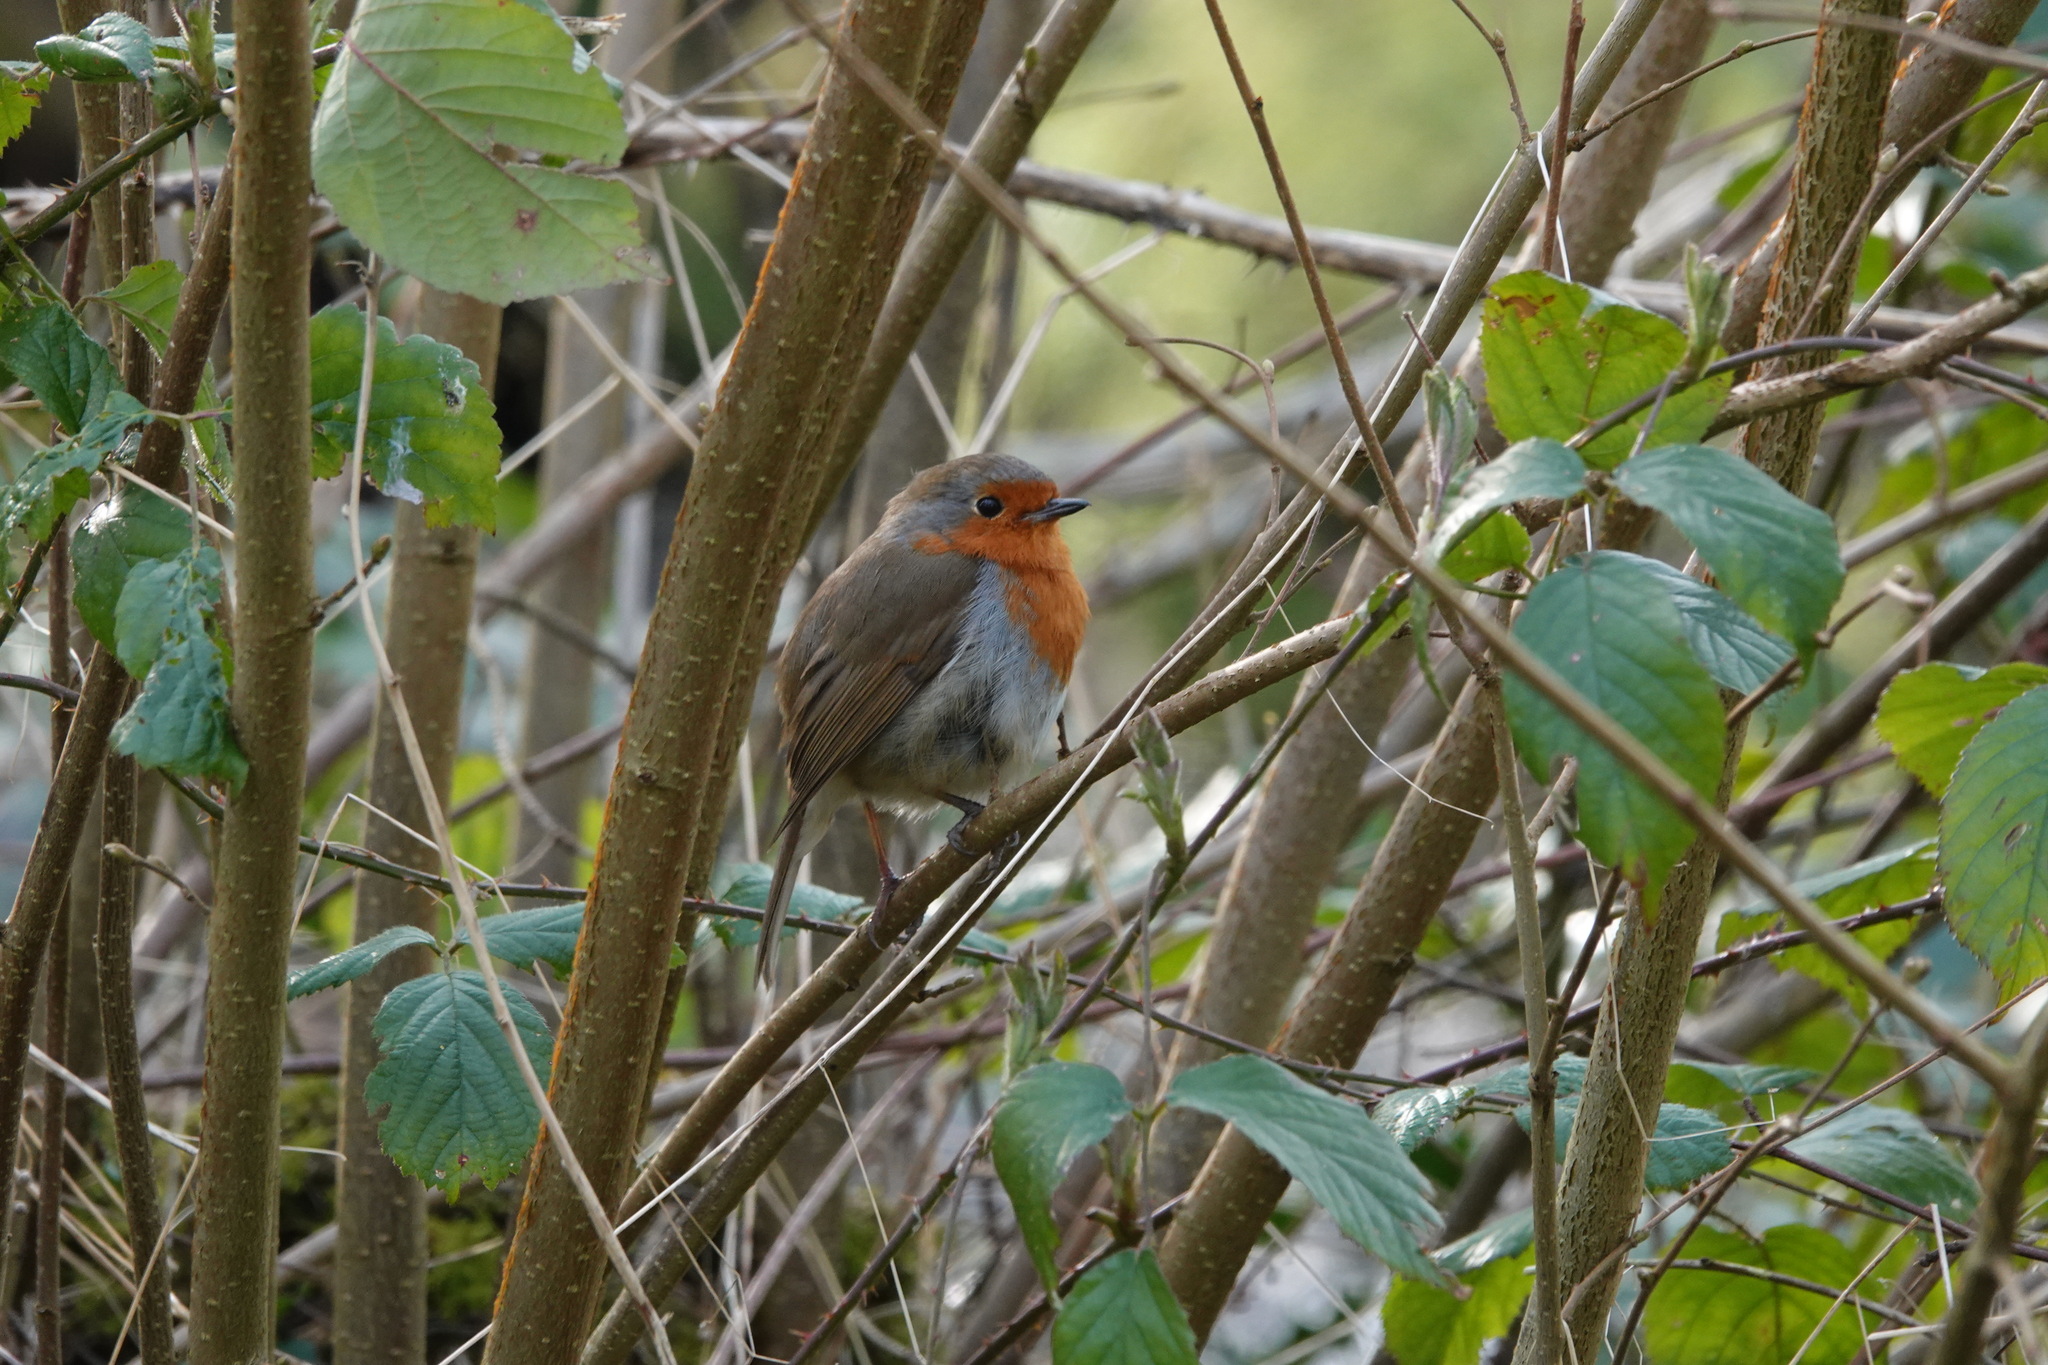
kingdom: Animalia
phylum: Chordata
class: Aves
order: Passeriformes
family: Muscicapidae
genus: Erithacus
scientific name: Erithacus rubecula
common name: European robin
